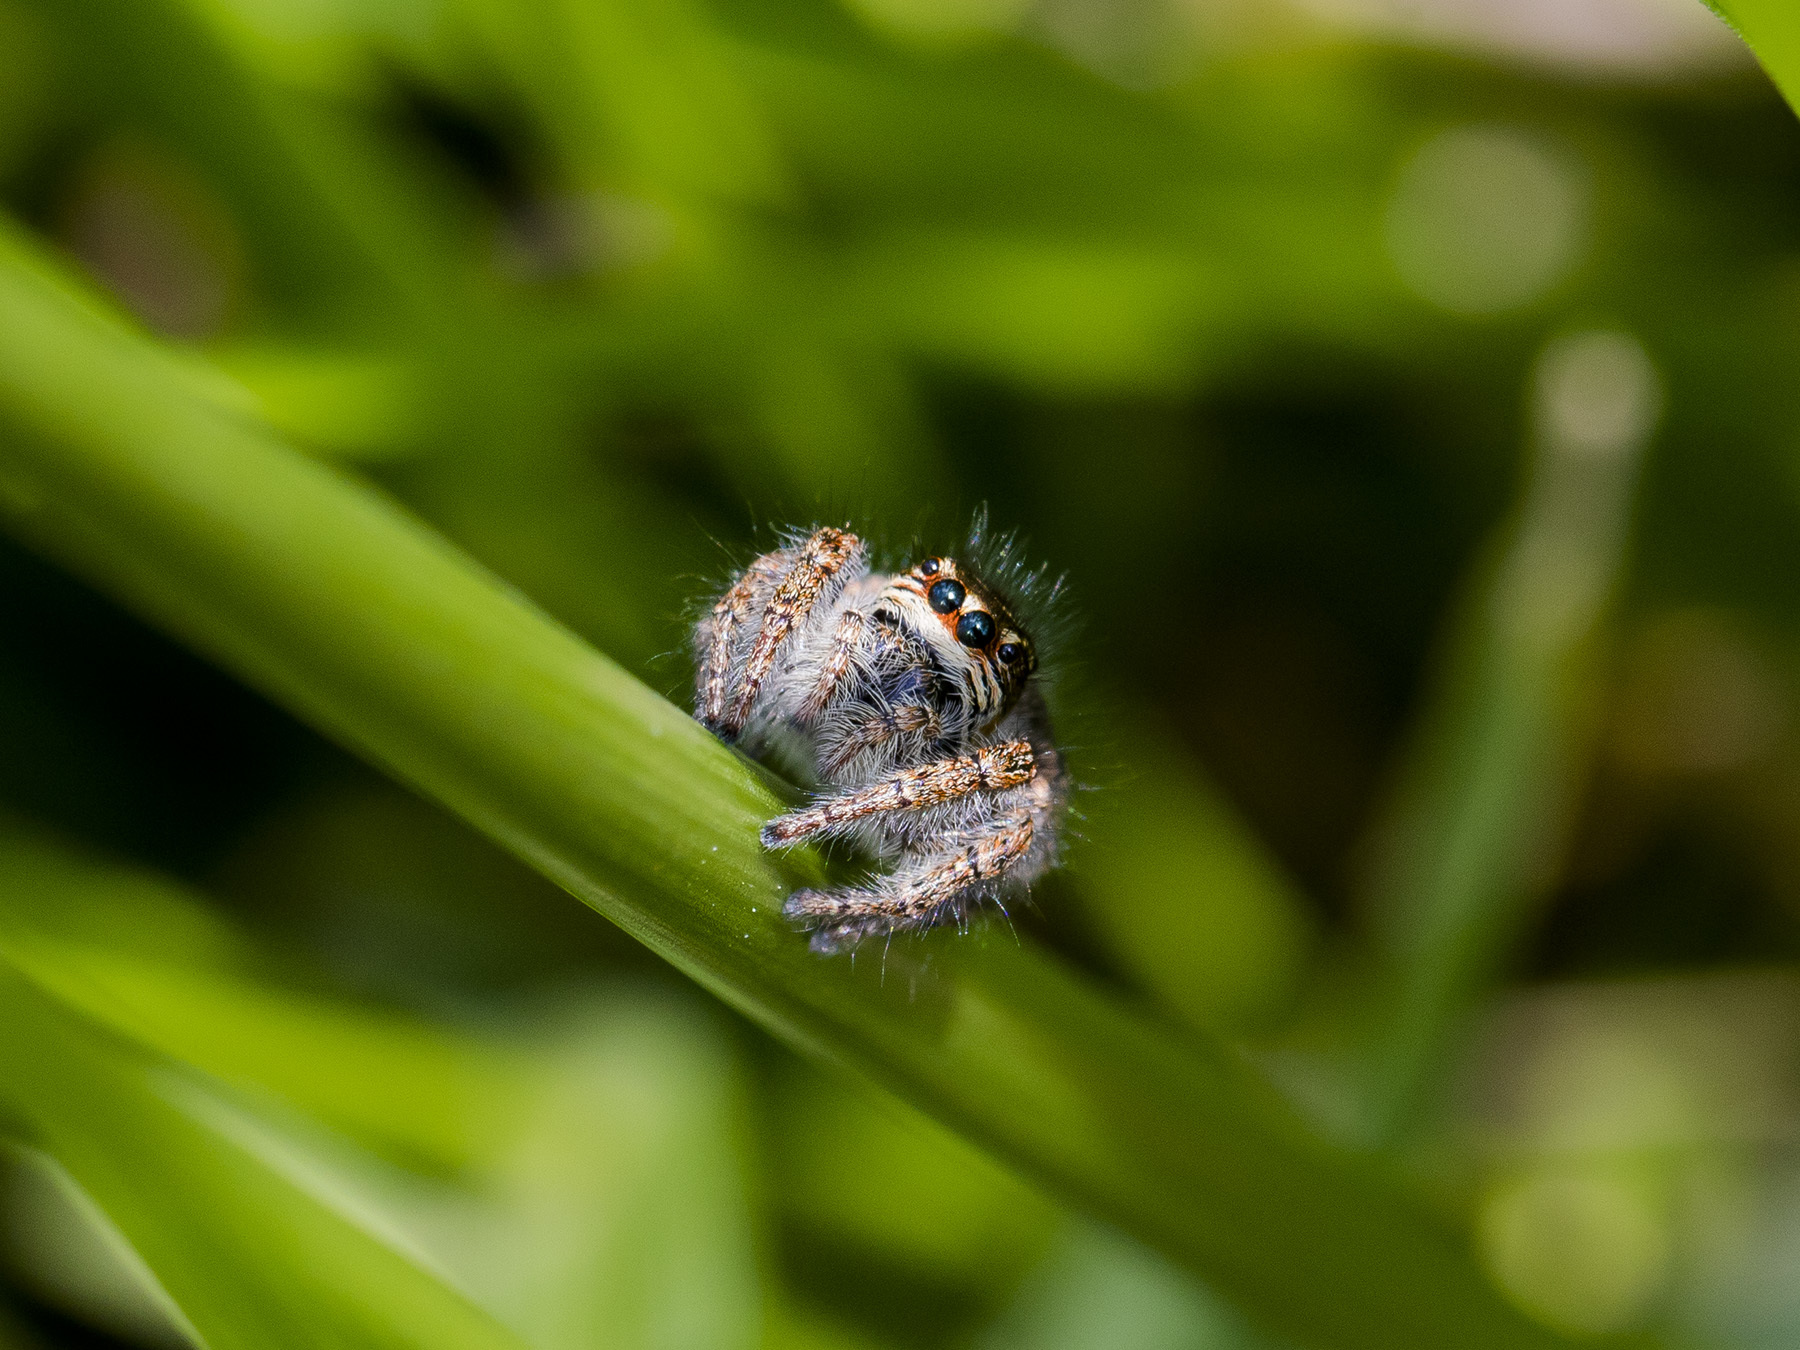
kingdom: Animalia
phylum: Arthropoda
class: Arachnida
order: Araneae
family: Salticidae
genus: Philaeus
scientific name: Philaeus chrysops
